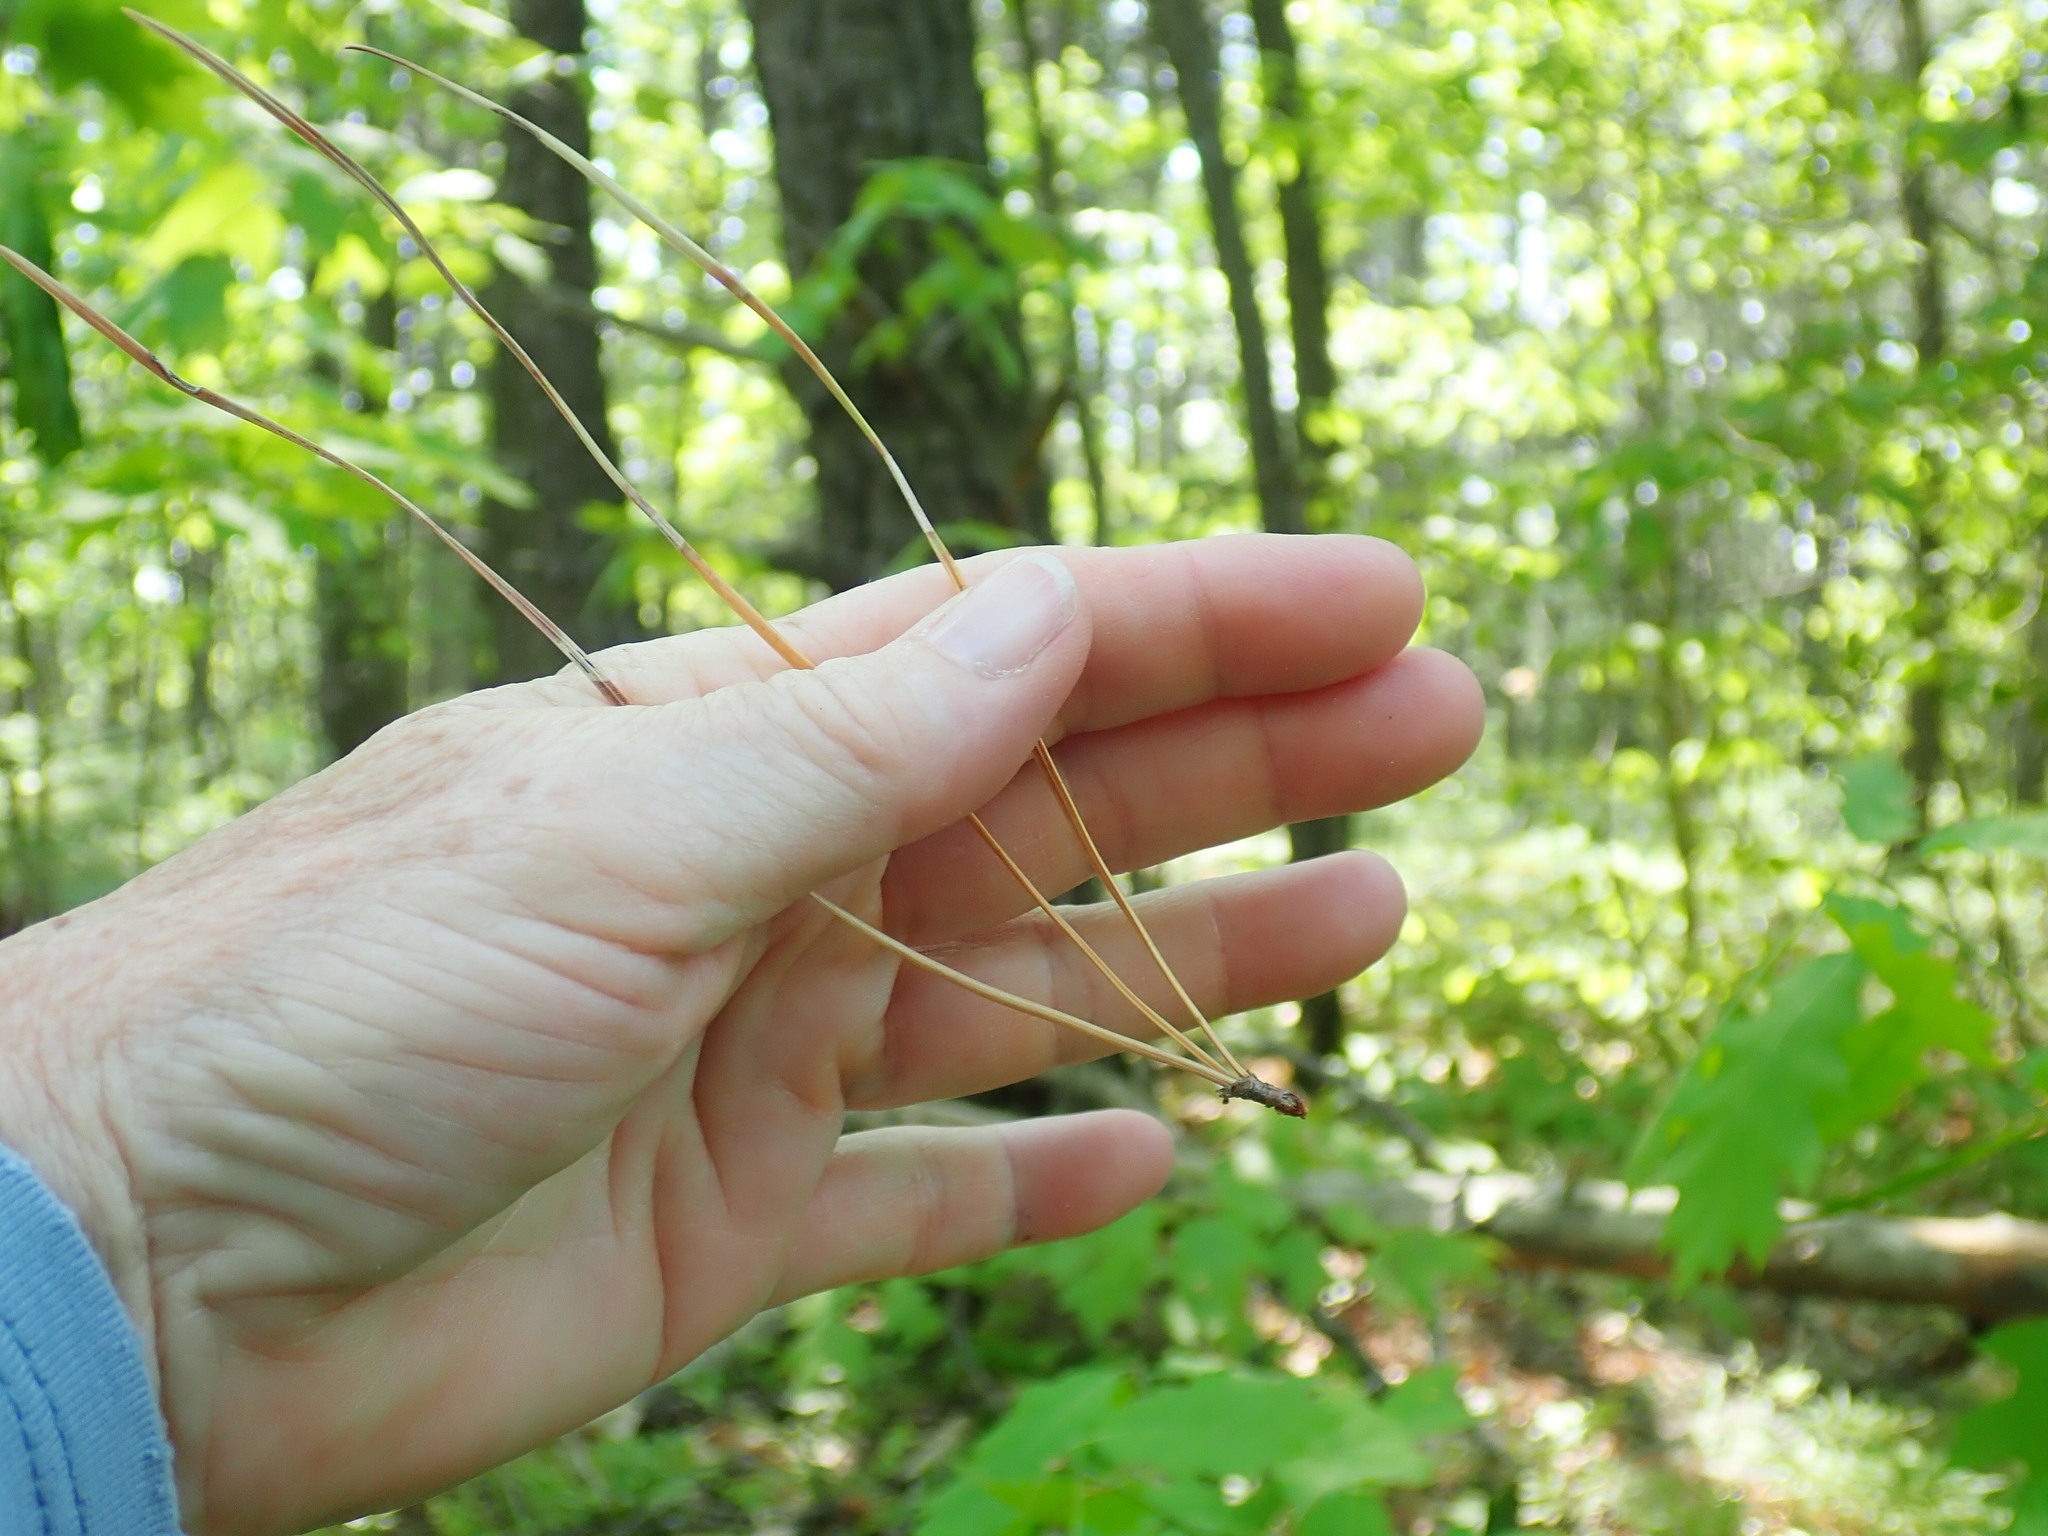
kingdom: Plantae
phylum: Tracheophyta
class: Pinopsida
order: Pinales
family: Pinaceae
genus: Pinus
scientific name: Pinus rigida
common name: Pitch pine
